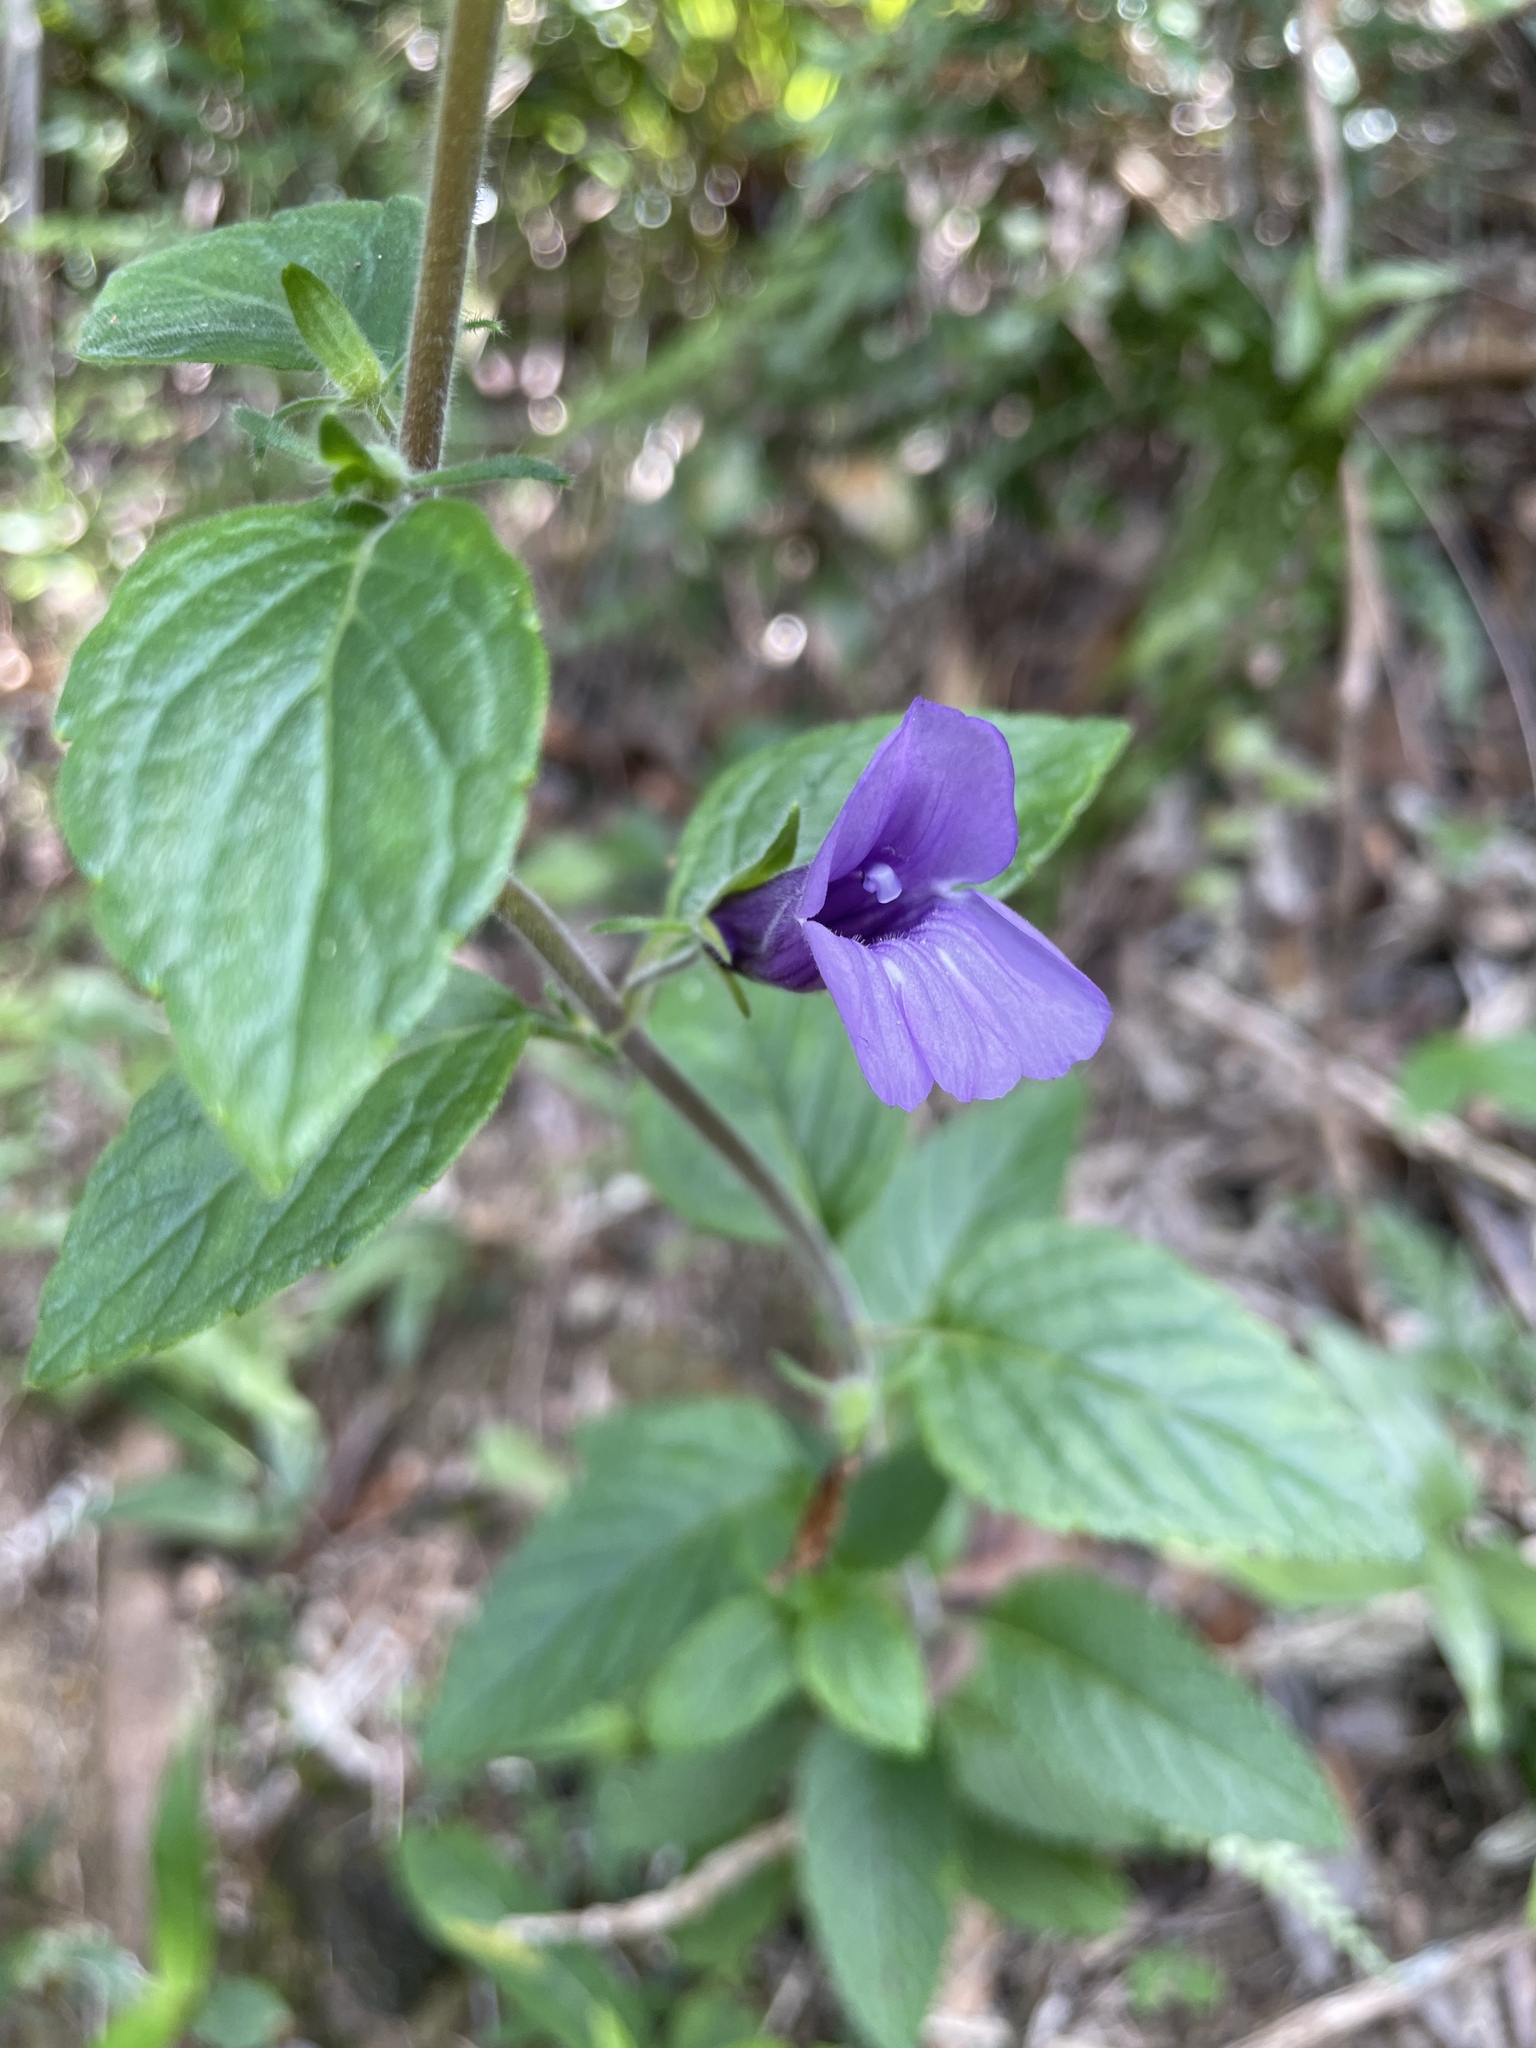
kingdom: Plantae
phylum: Tracheophyta
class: Magnoliopsida
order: Lamiales
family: Plantaginaceae
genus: Adenosma
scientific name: Adenosma glutinosa
